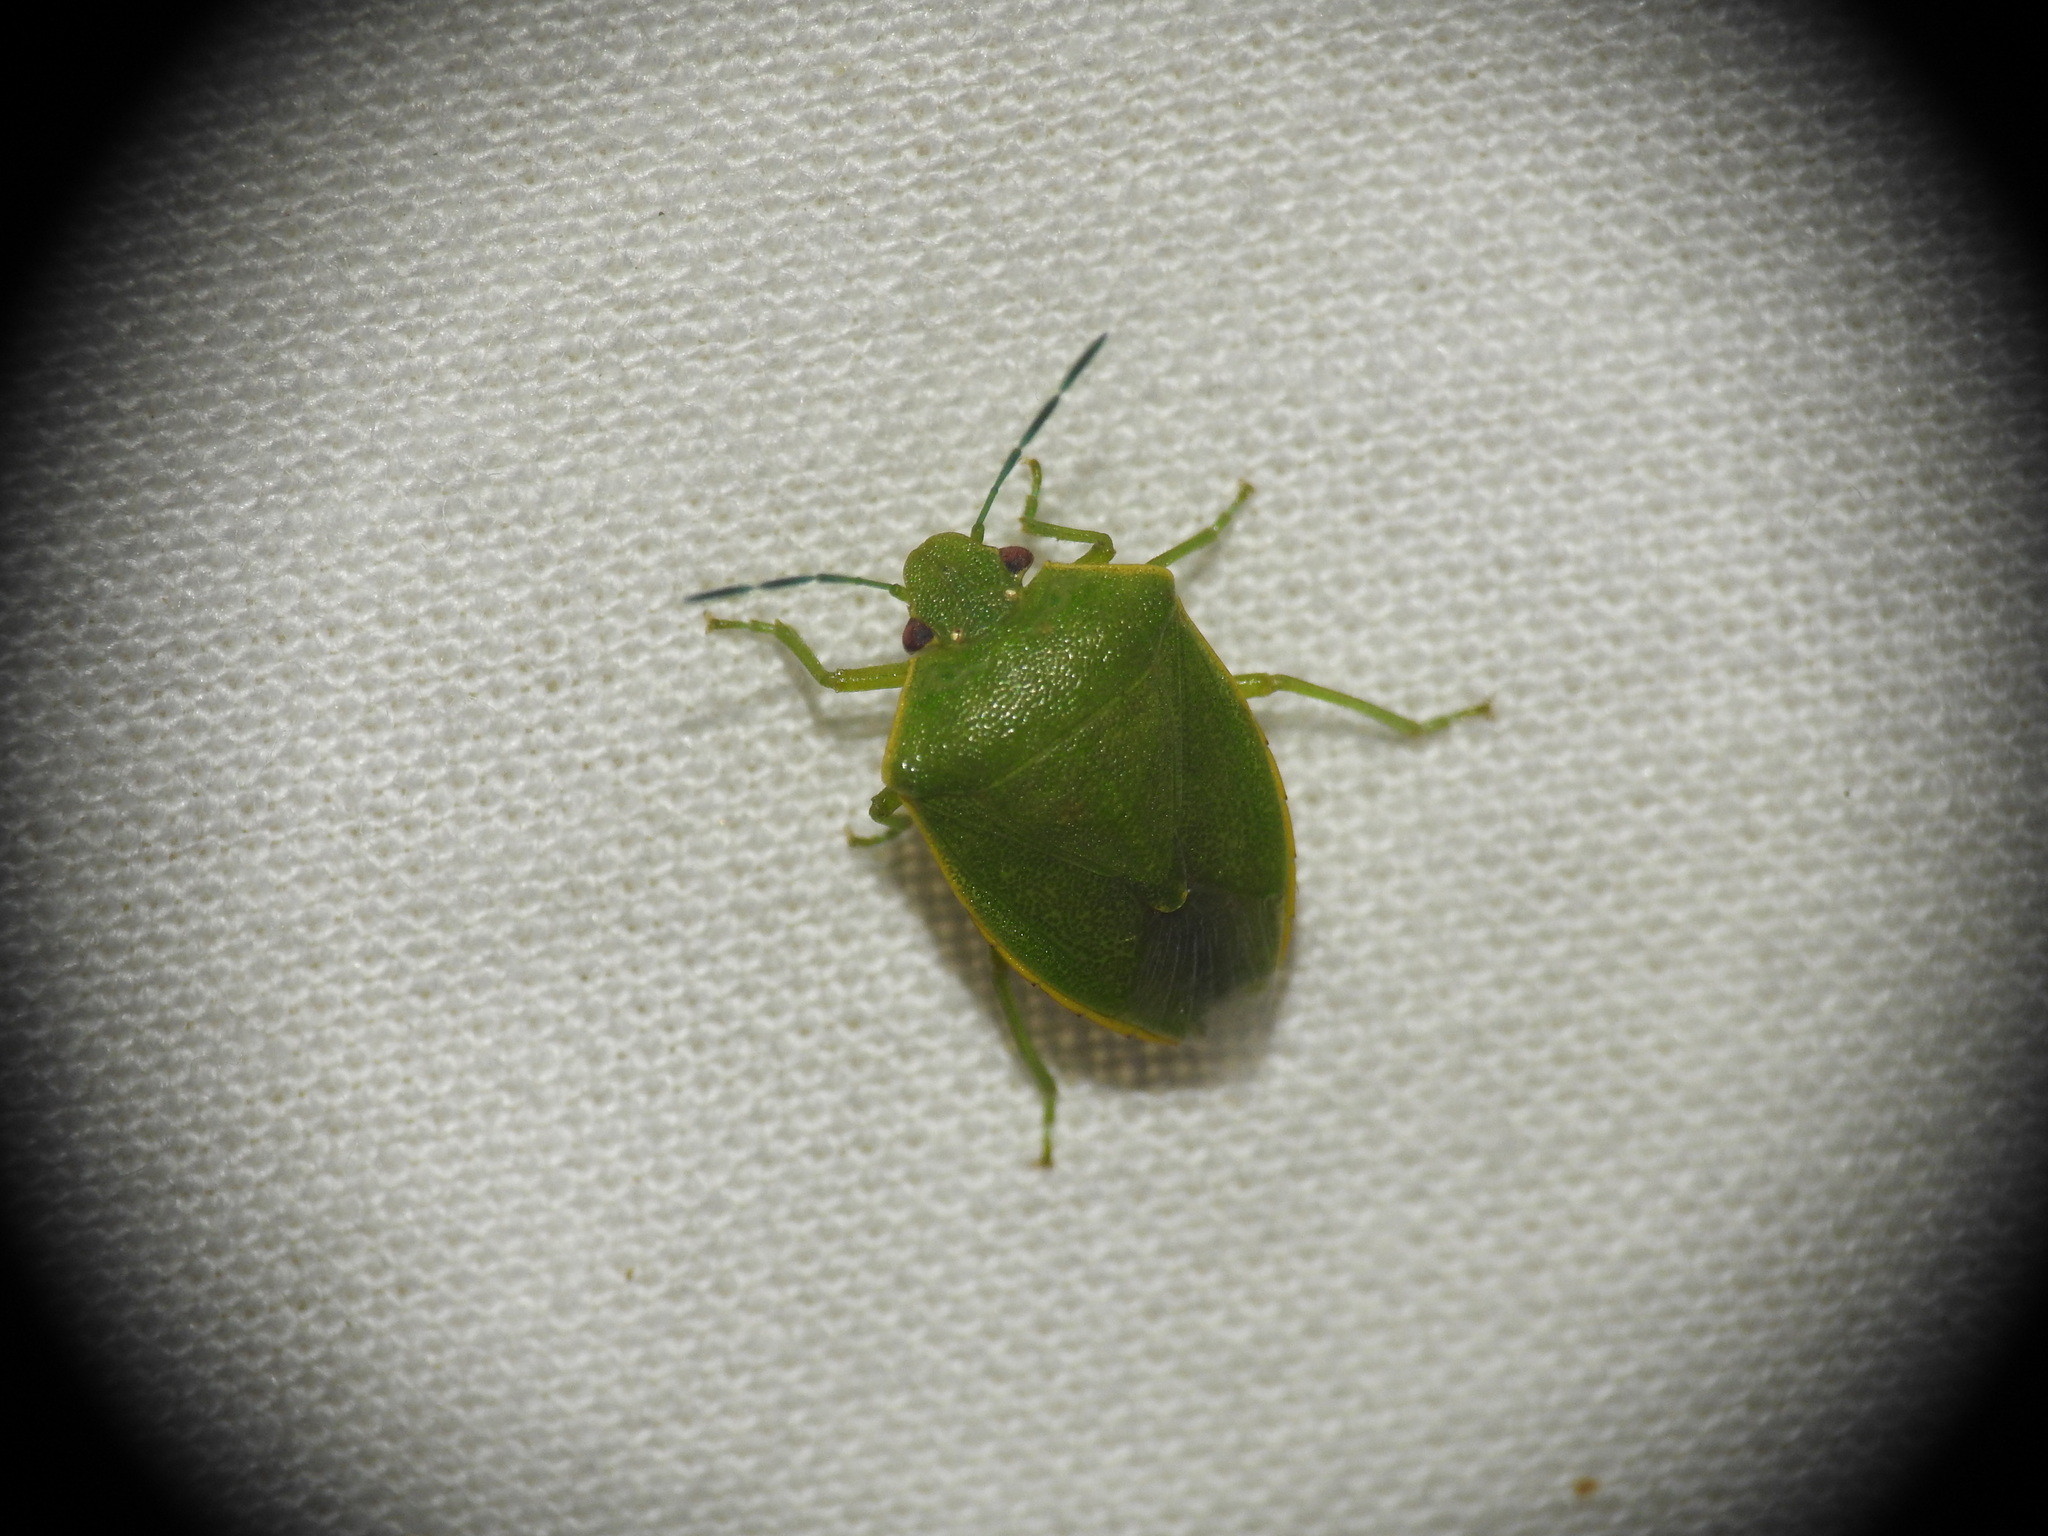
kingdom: Animalia
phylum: Arthropoda
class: Insecta
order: Hemiptera
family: Pentatomidae
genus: Acrosternum
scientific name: Acrosternum millierei
